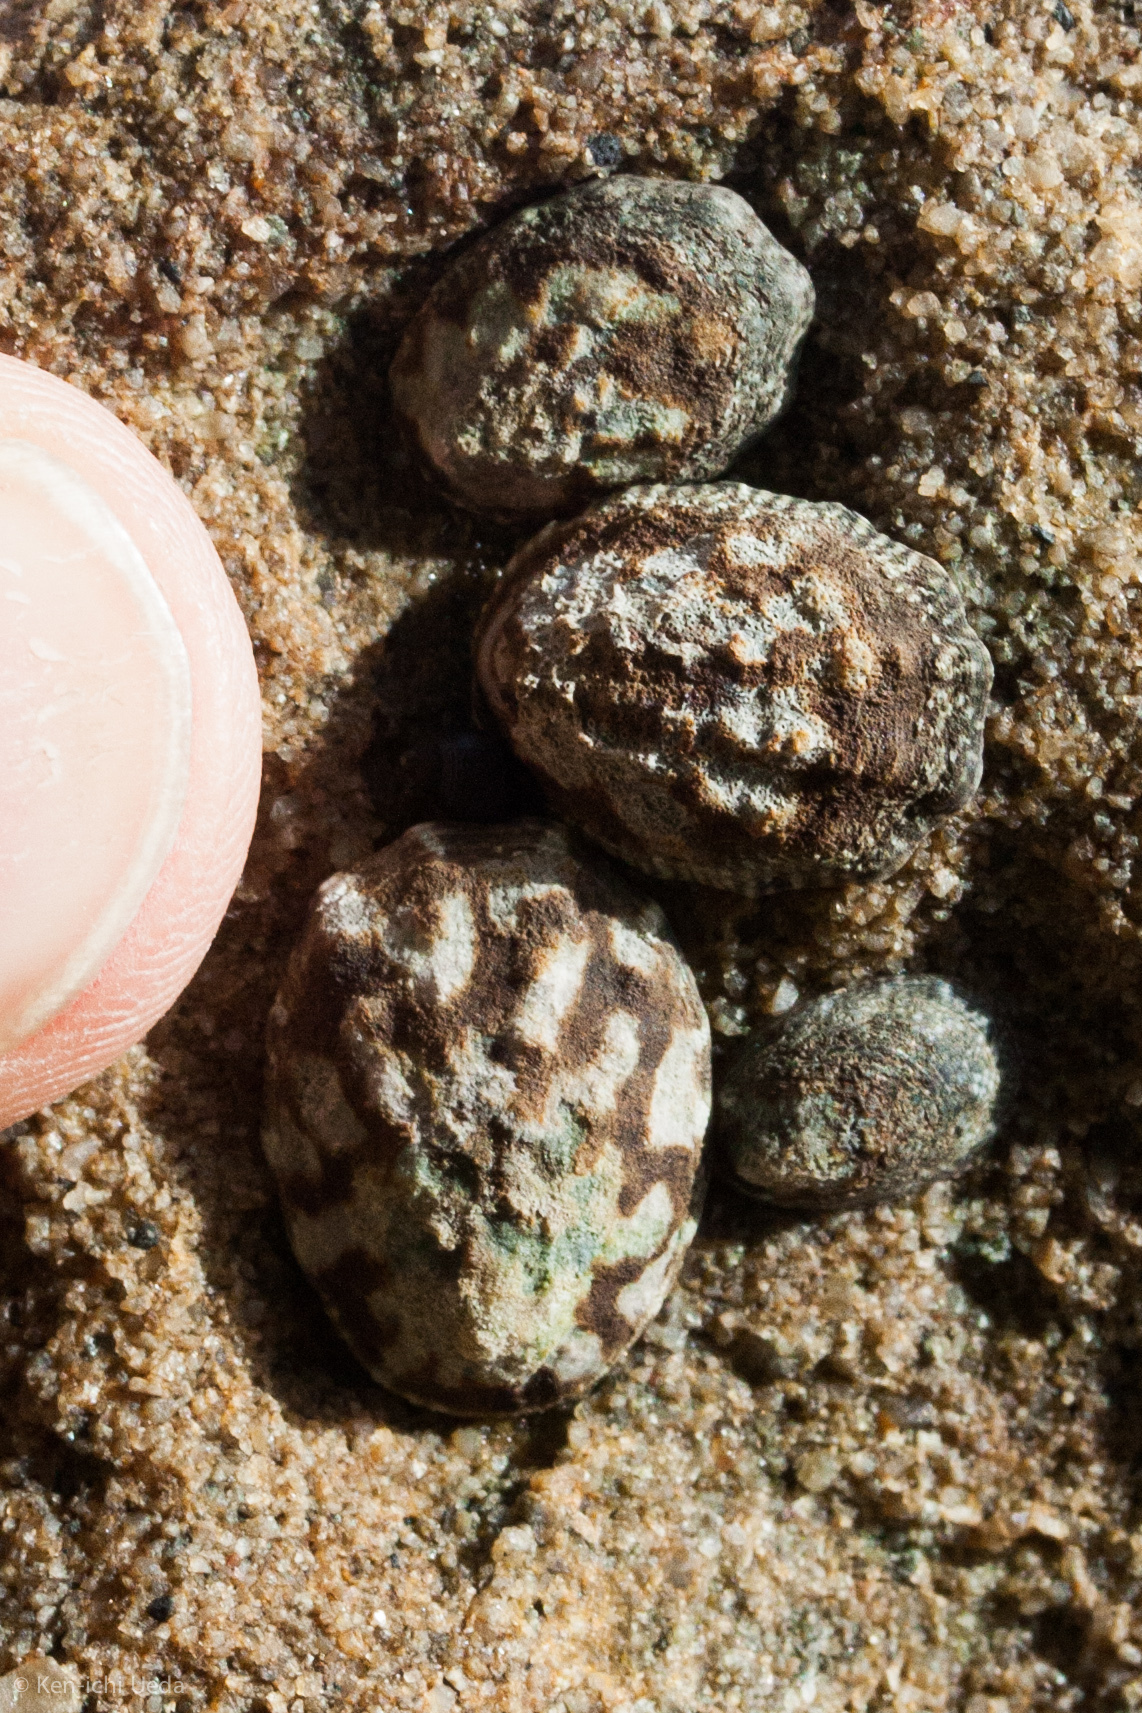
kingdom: Animalia
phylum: Mollusca
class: Gastropoda
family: Lottiidae
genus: Lottia
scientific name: Lottia digitalis
